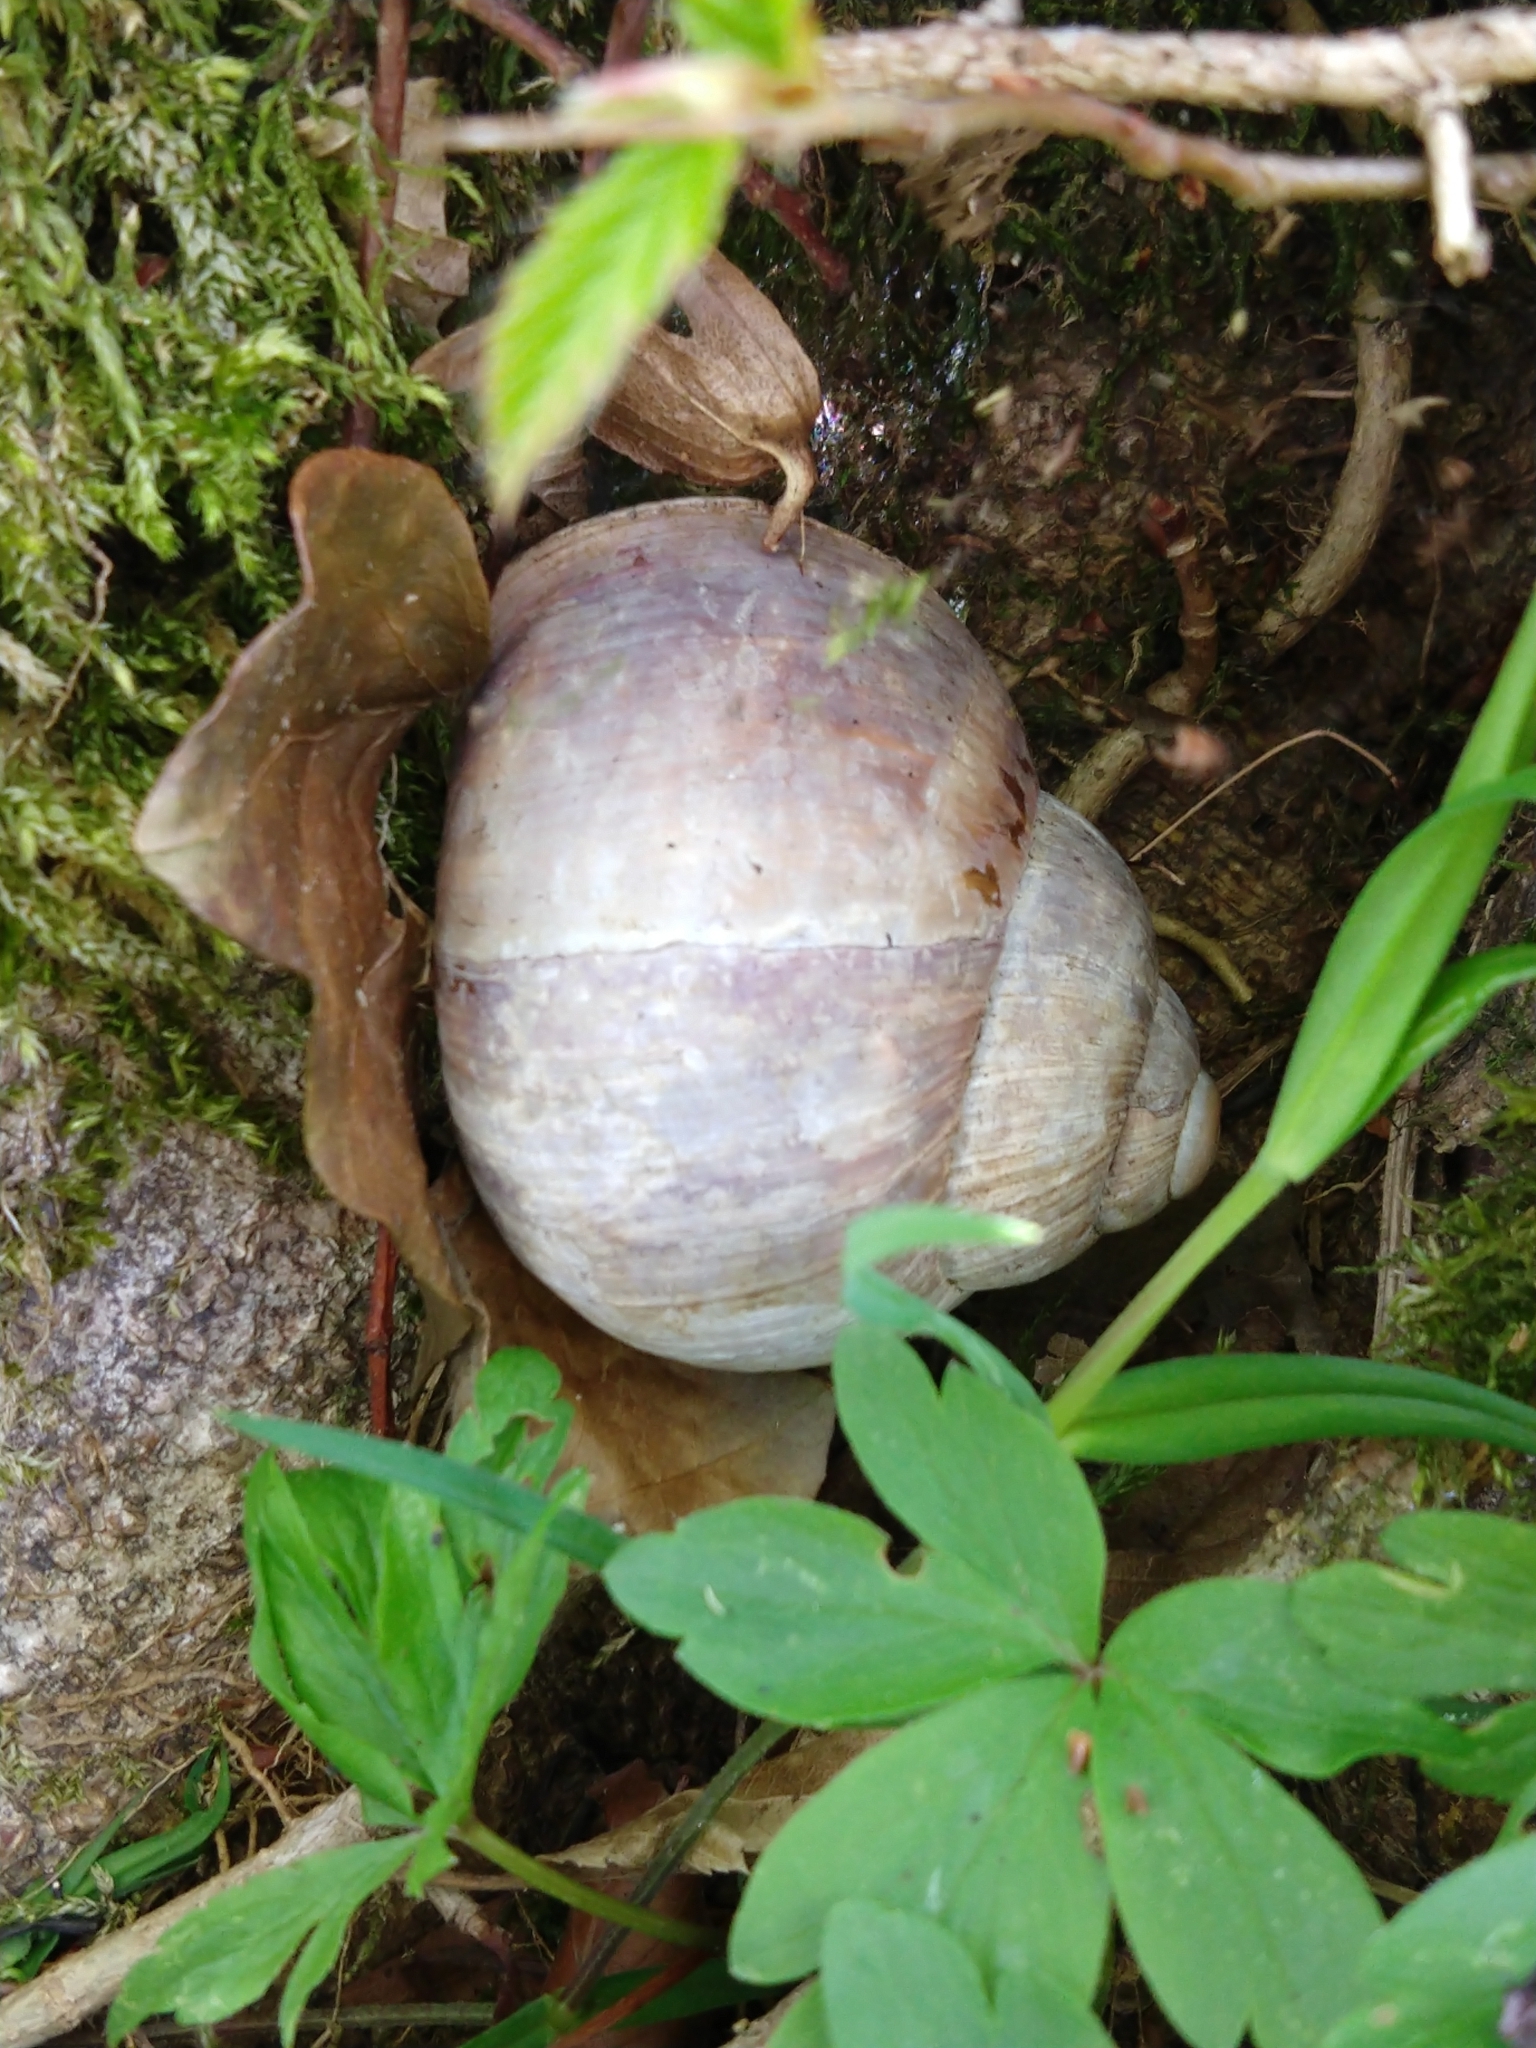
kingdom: Animalia
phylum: Mollusca
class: Gastropoda
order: Stylommatophora
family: Helicidae
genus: Helix
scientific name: Helix pomatia
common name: Roman snail
